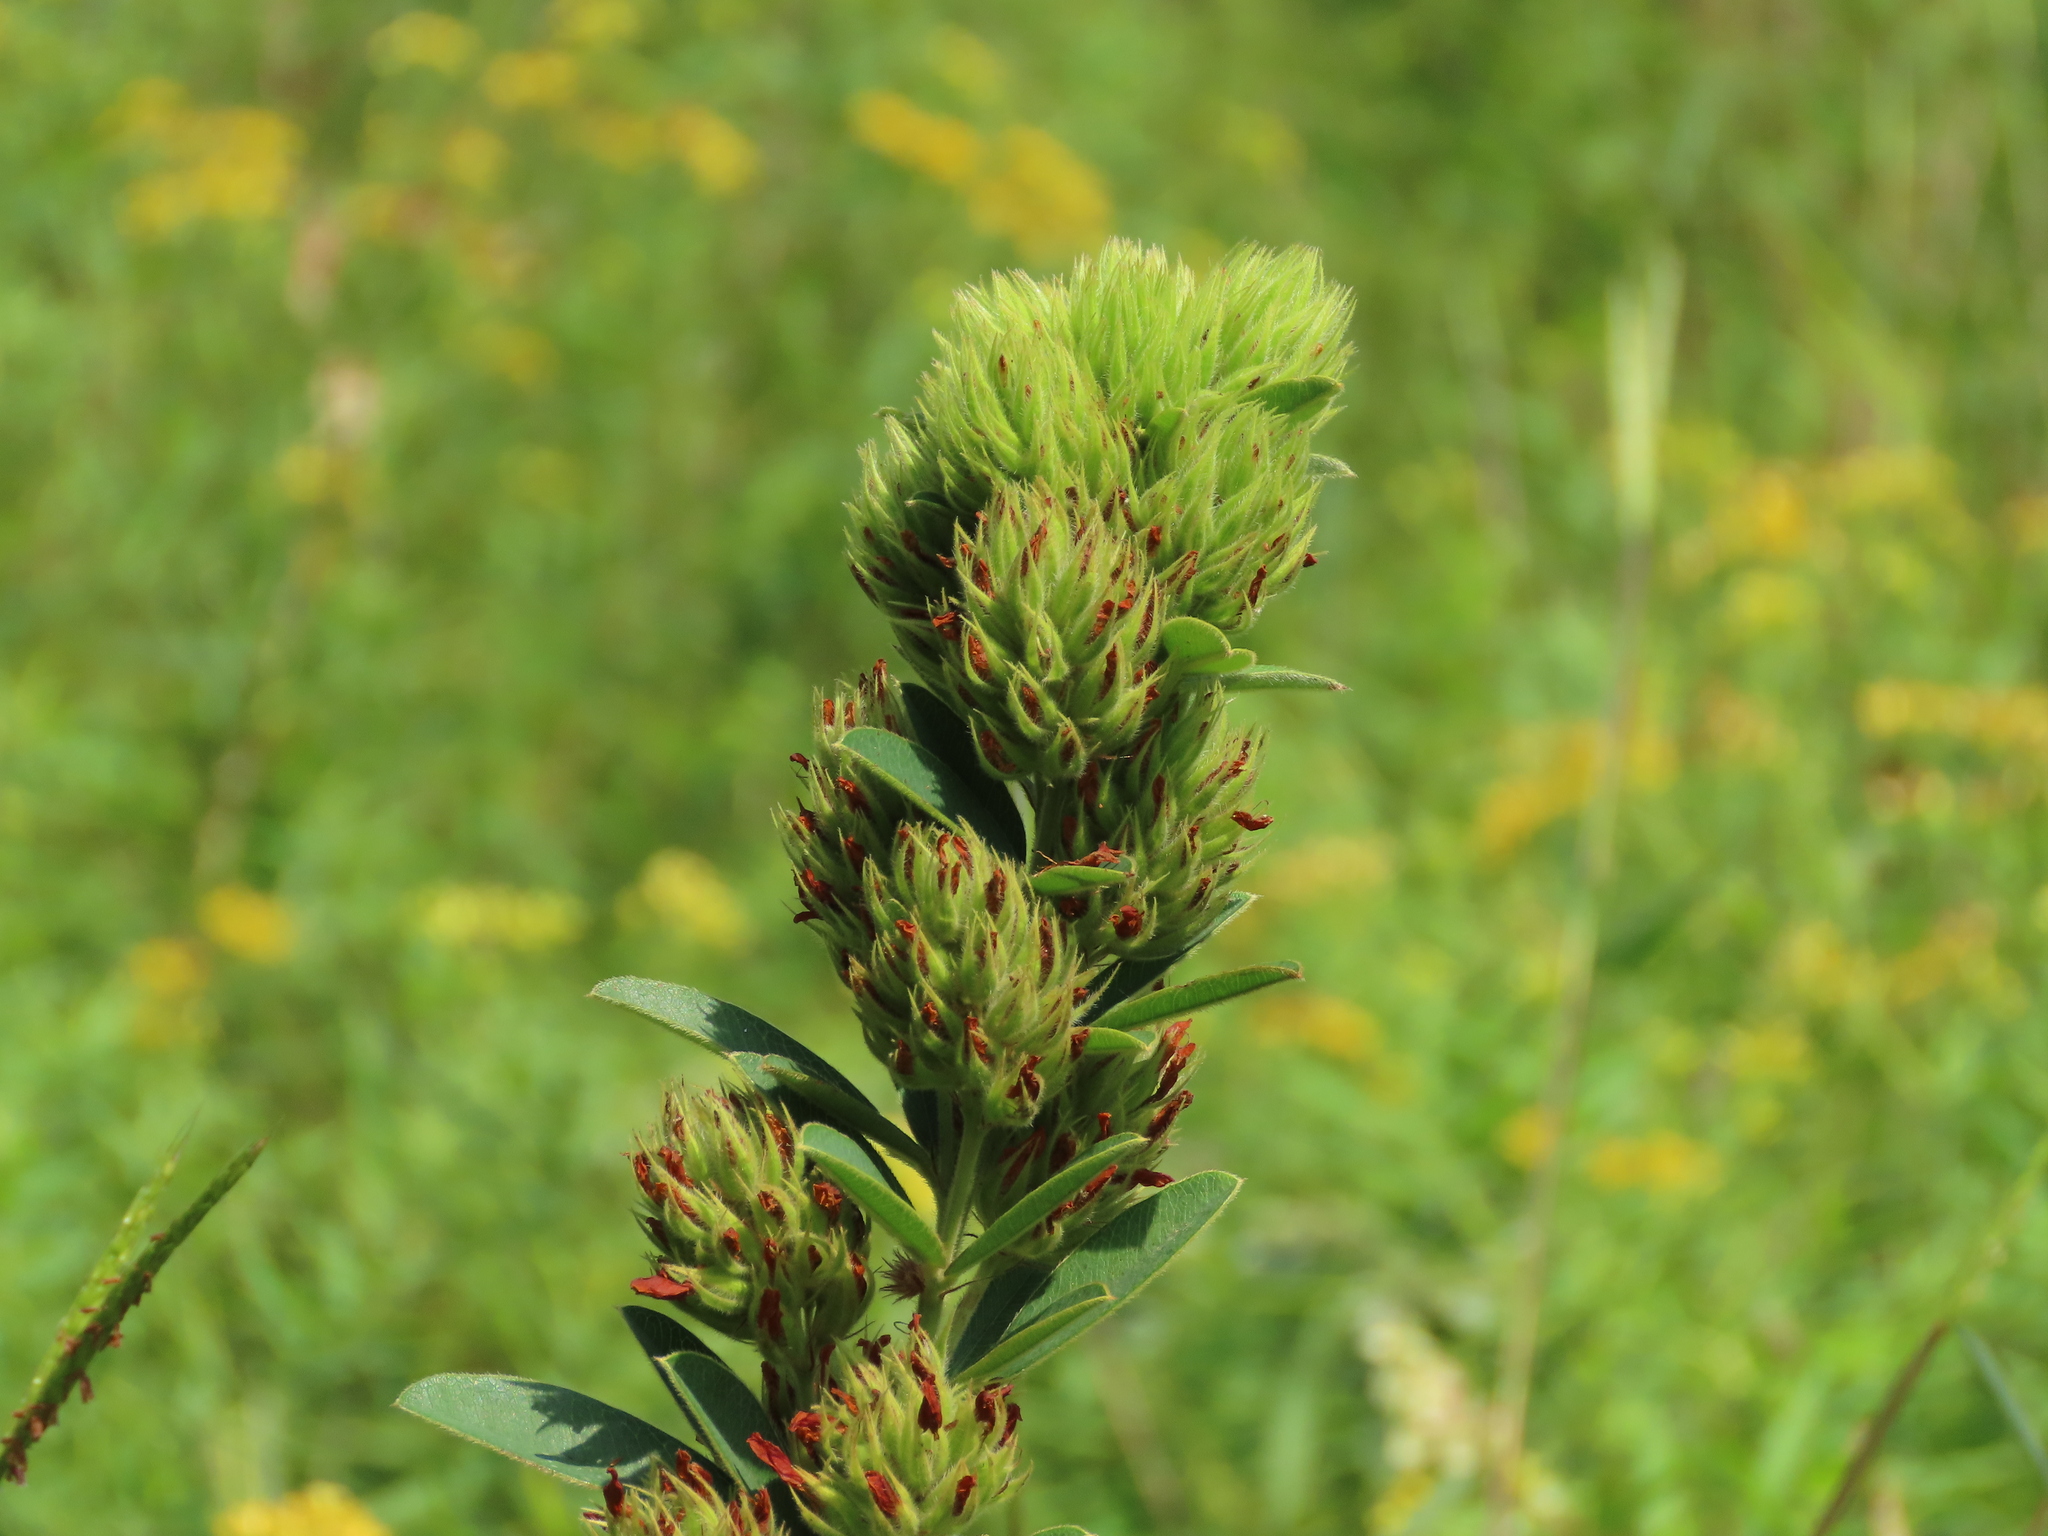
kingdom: Plantae
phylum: Tracheophyta
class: Magnoliopsida
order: Fabales
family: Fabaceae
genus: Lespedeza
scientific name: Lespedeza capitata
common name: Dusty clover
